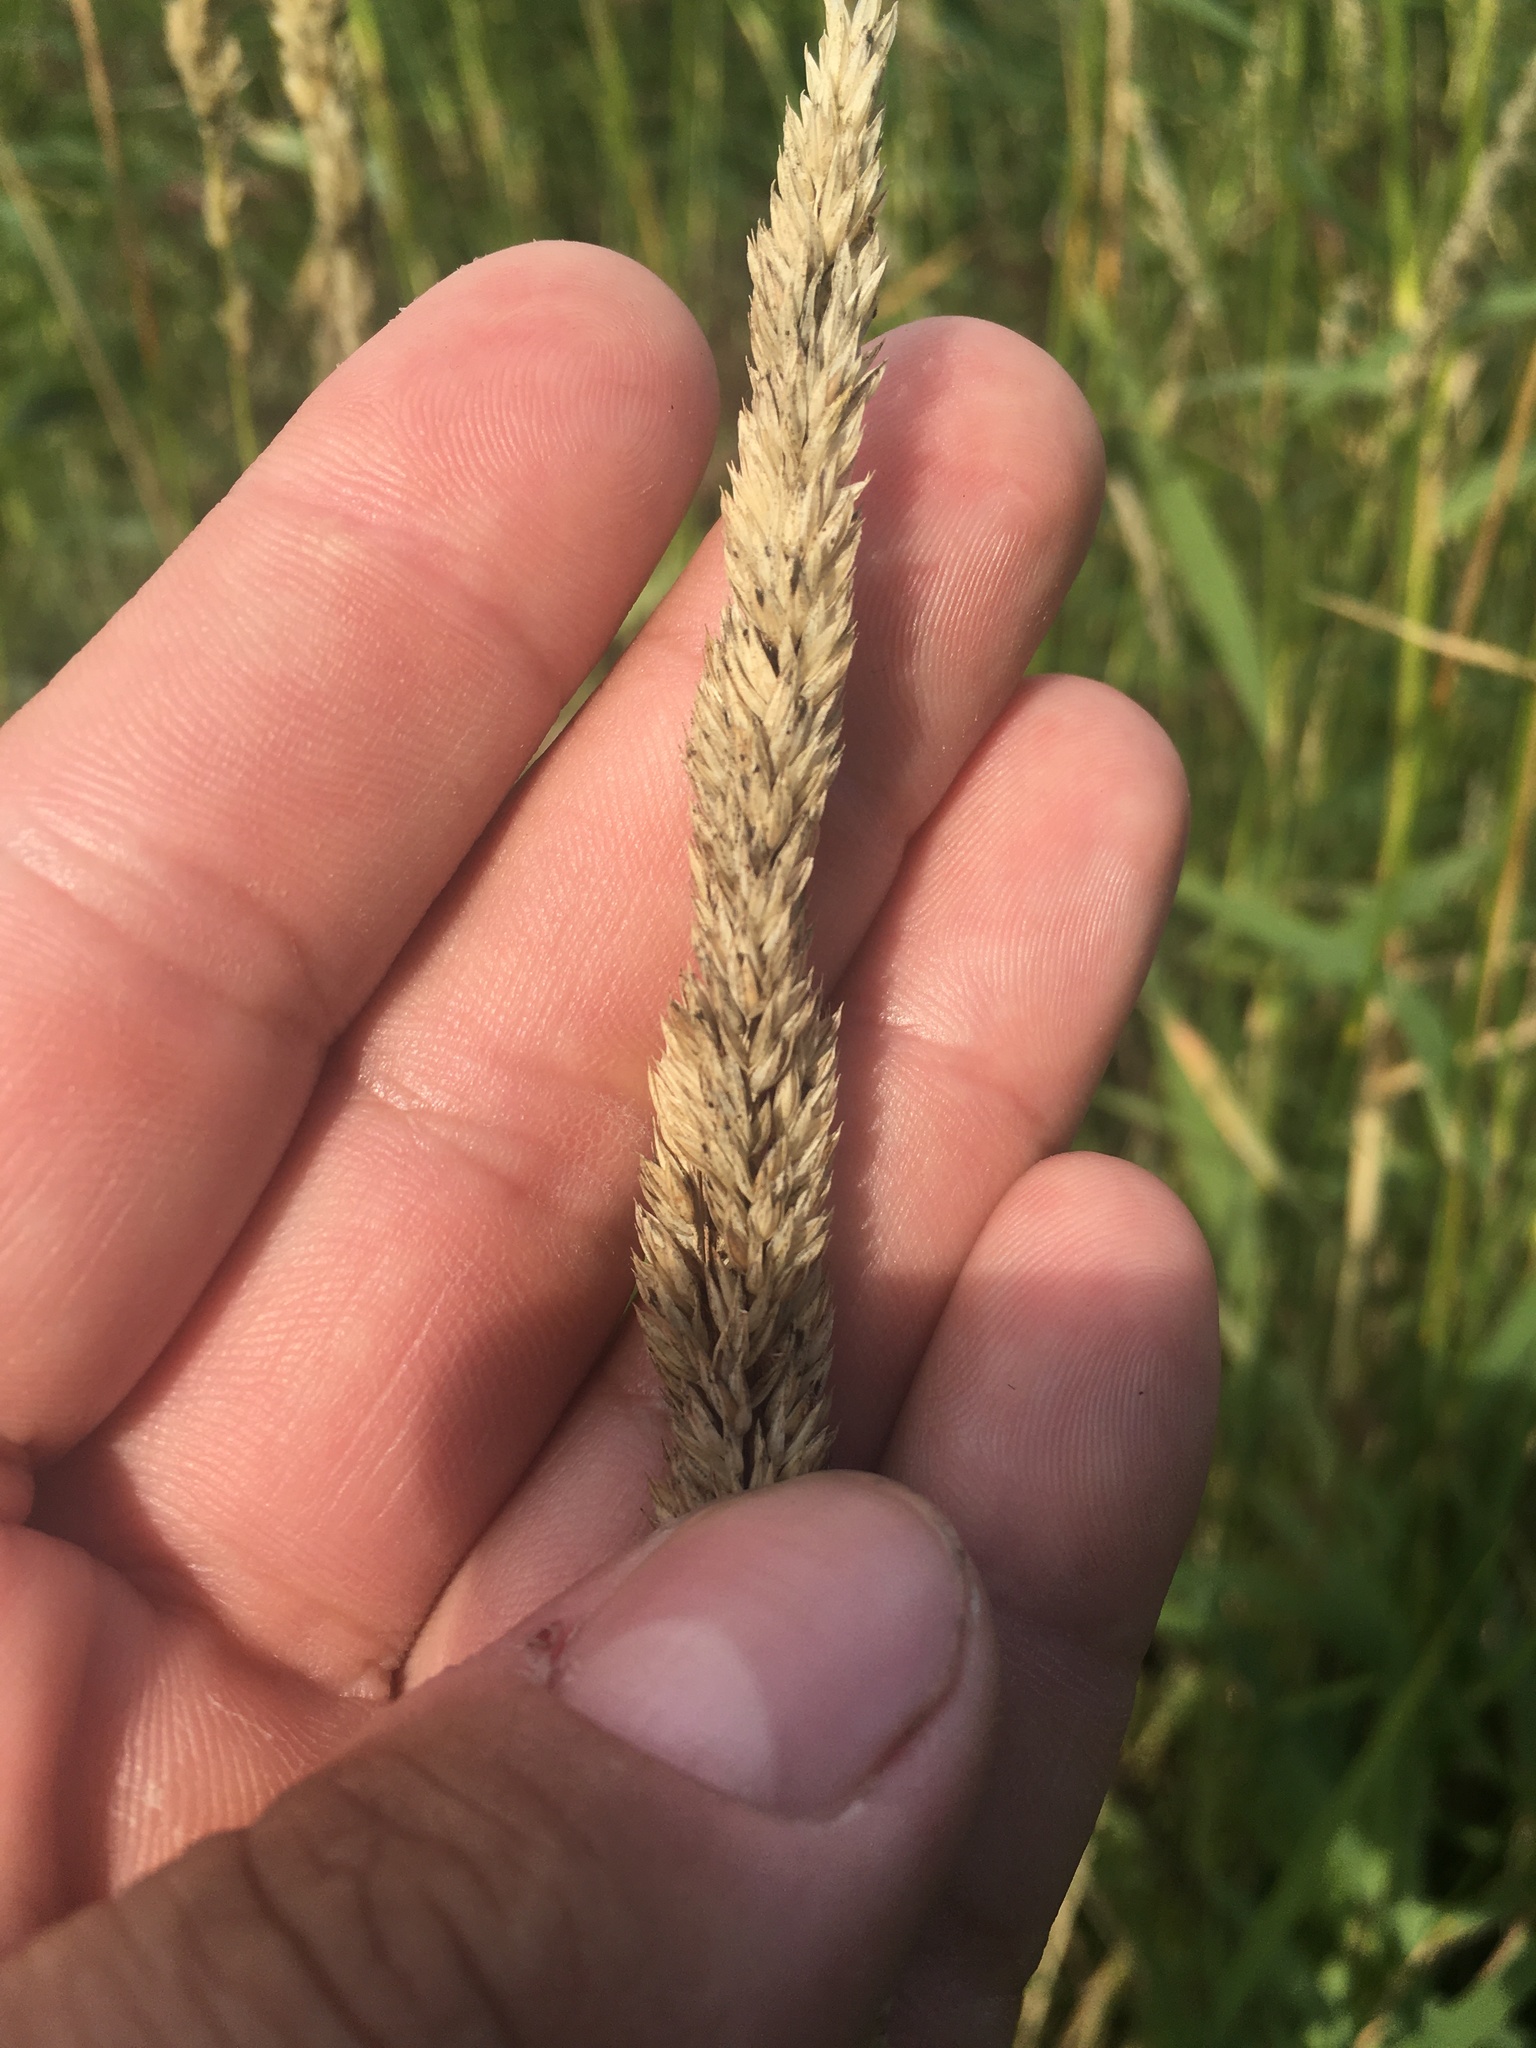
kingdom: Plantae
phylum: Tracheophyta
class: Liliopsida
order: Poales
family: Poaceae
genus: Phalaris
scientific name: Phalaris arundinacea
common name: Reed canary-grass
